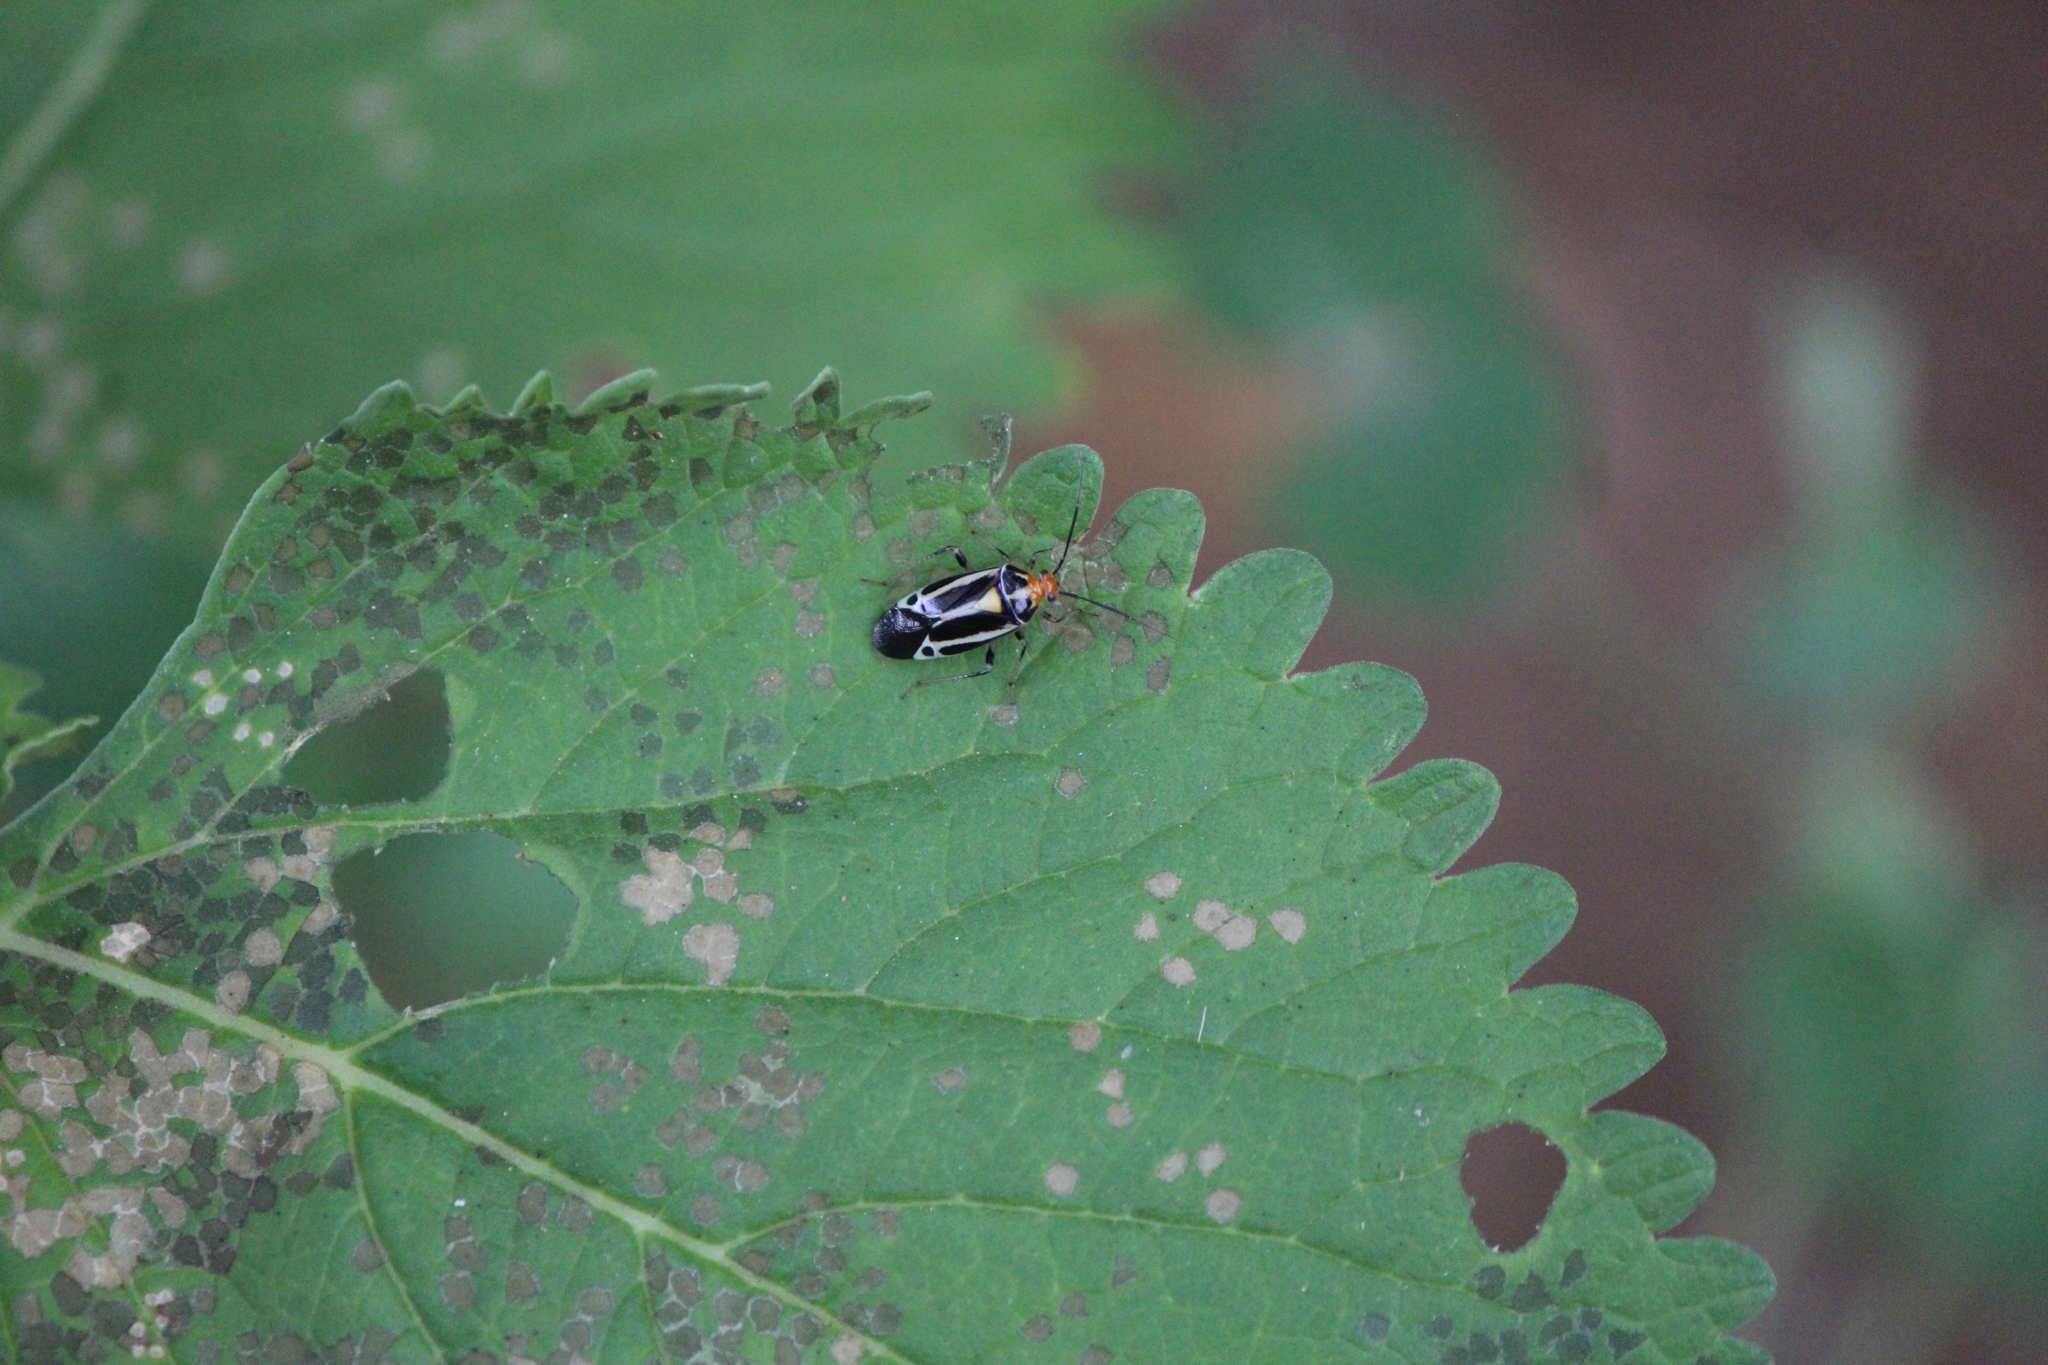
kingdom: Animalia
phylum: Arthropoda
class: Insecta
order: Hemiptera
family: Miridae
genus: Poecilocapsus
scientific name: Poecilocapsus nigriger
